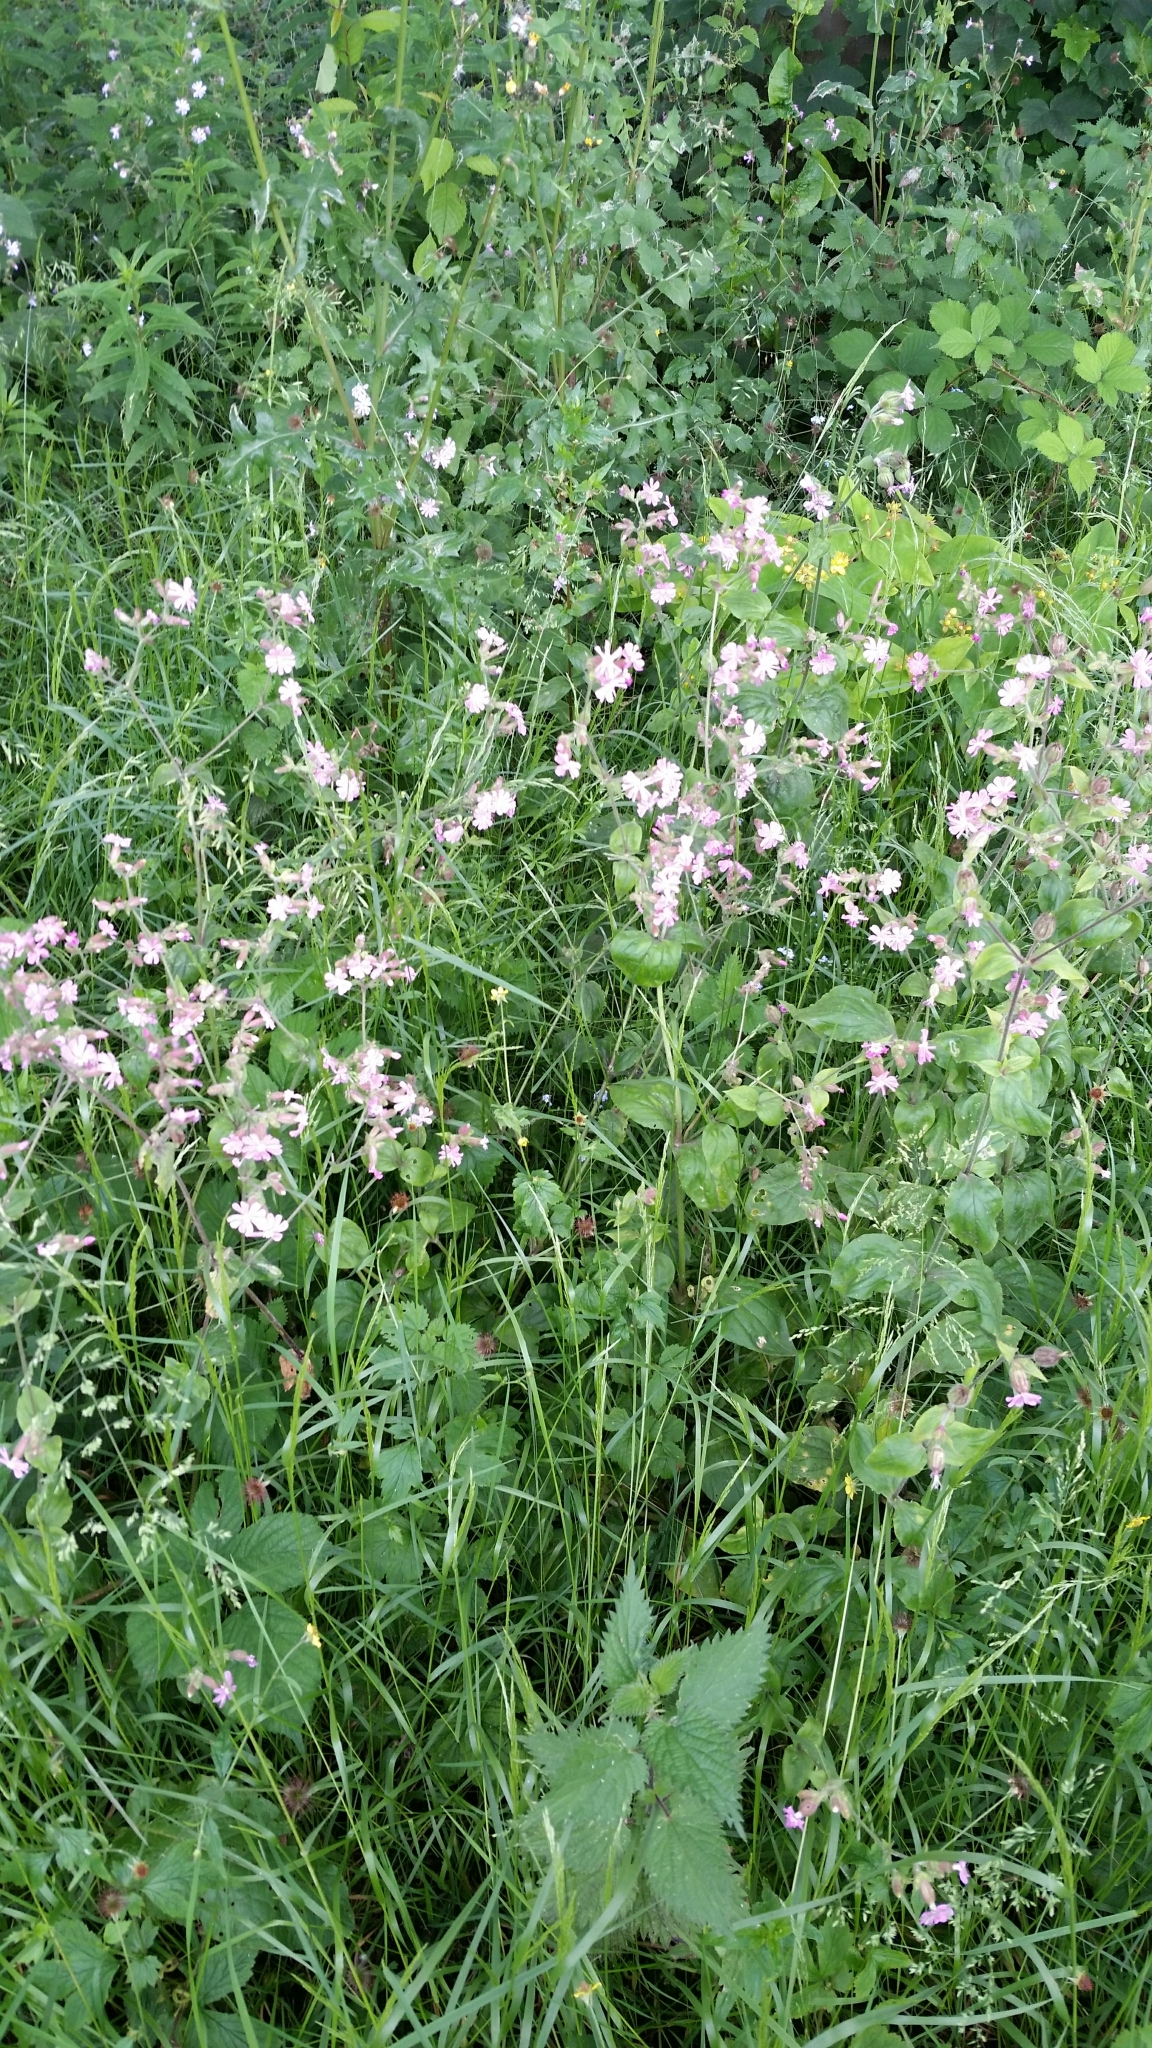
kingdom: Plantae
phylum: Tracheophyta
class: Magnoliopsida
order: Caryophyllales
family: Caryophyllaceae
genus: Silene
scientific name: Silene dioica
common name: Red campion
